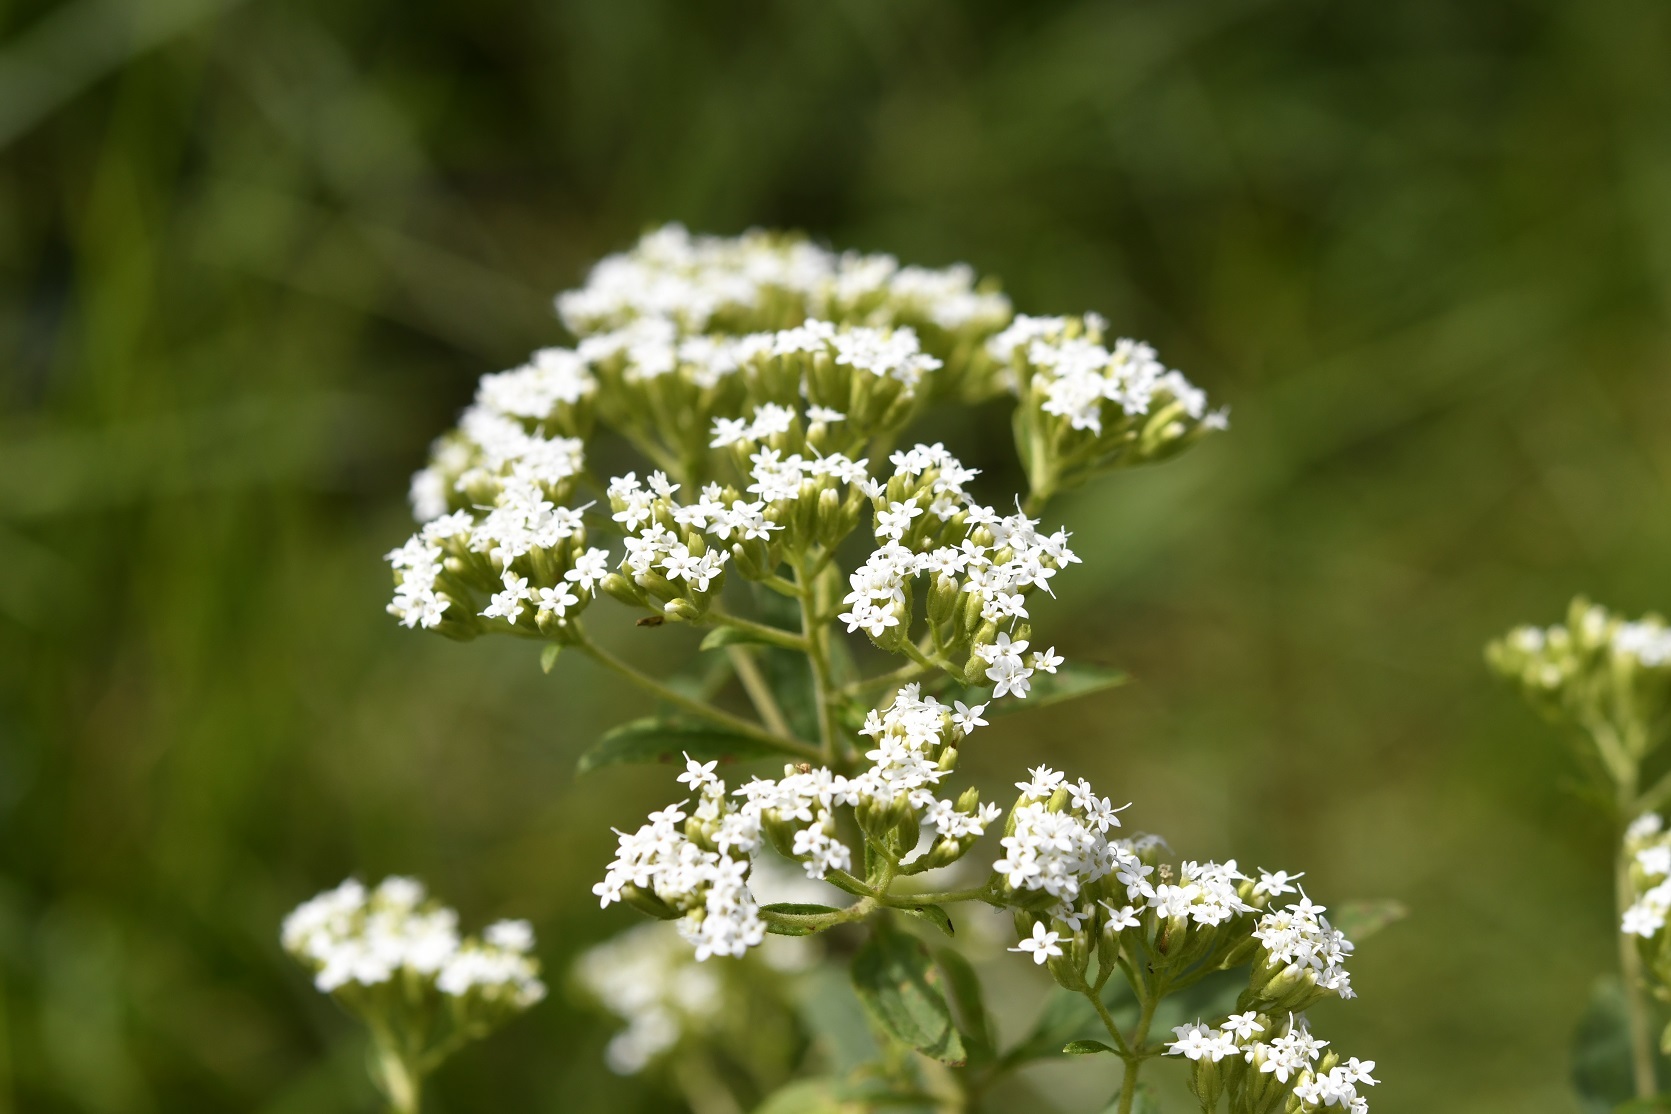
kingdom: Plantae
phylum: Tracheophyta
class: Magnoliopsida
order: Asterales
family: Asteraceae
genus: Stevia
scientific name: Stevia ovata
